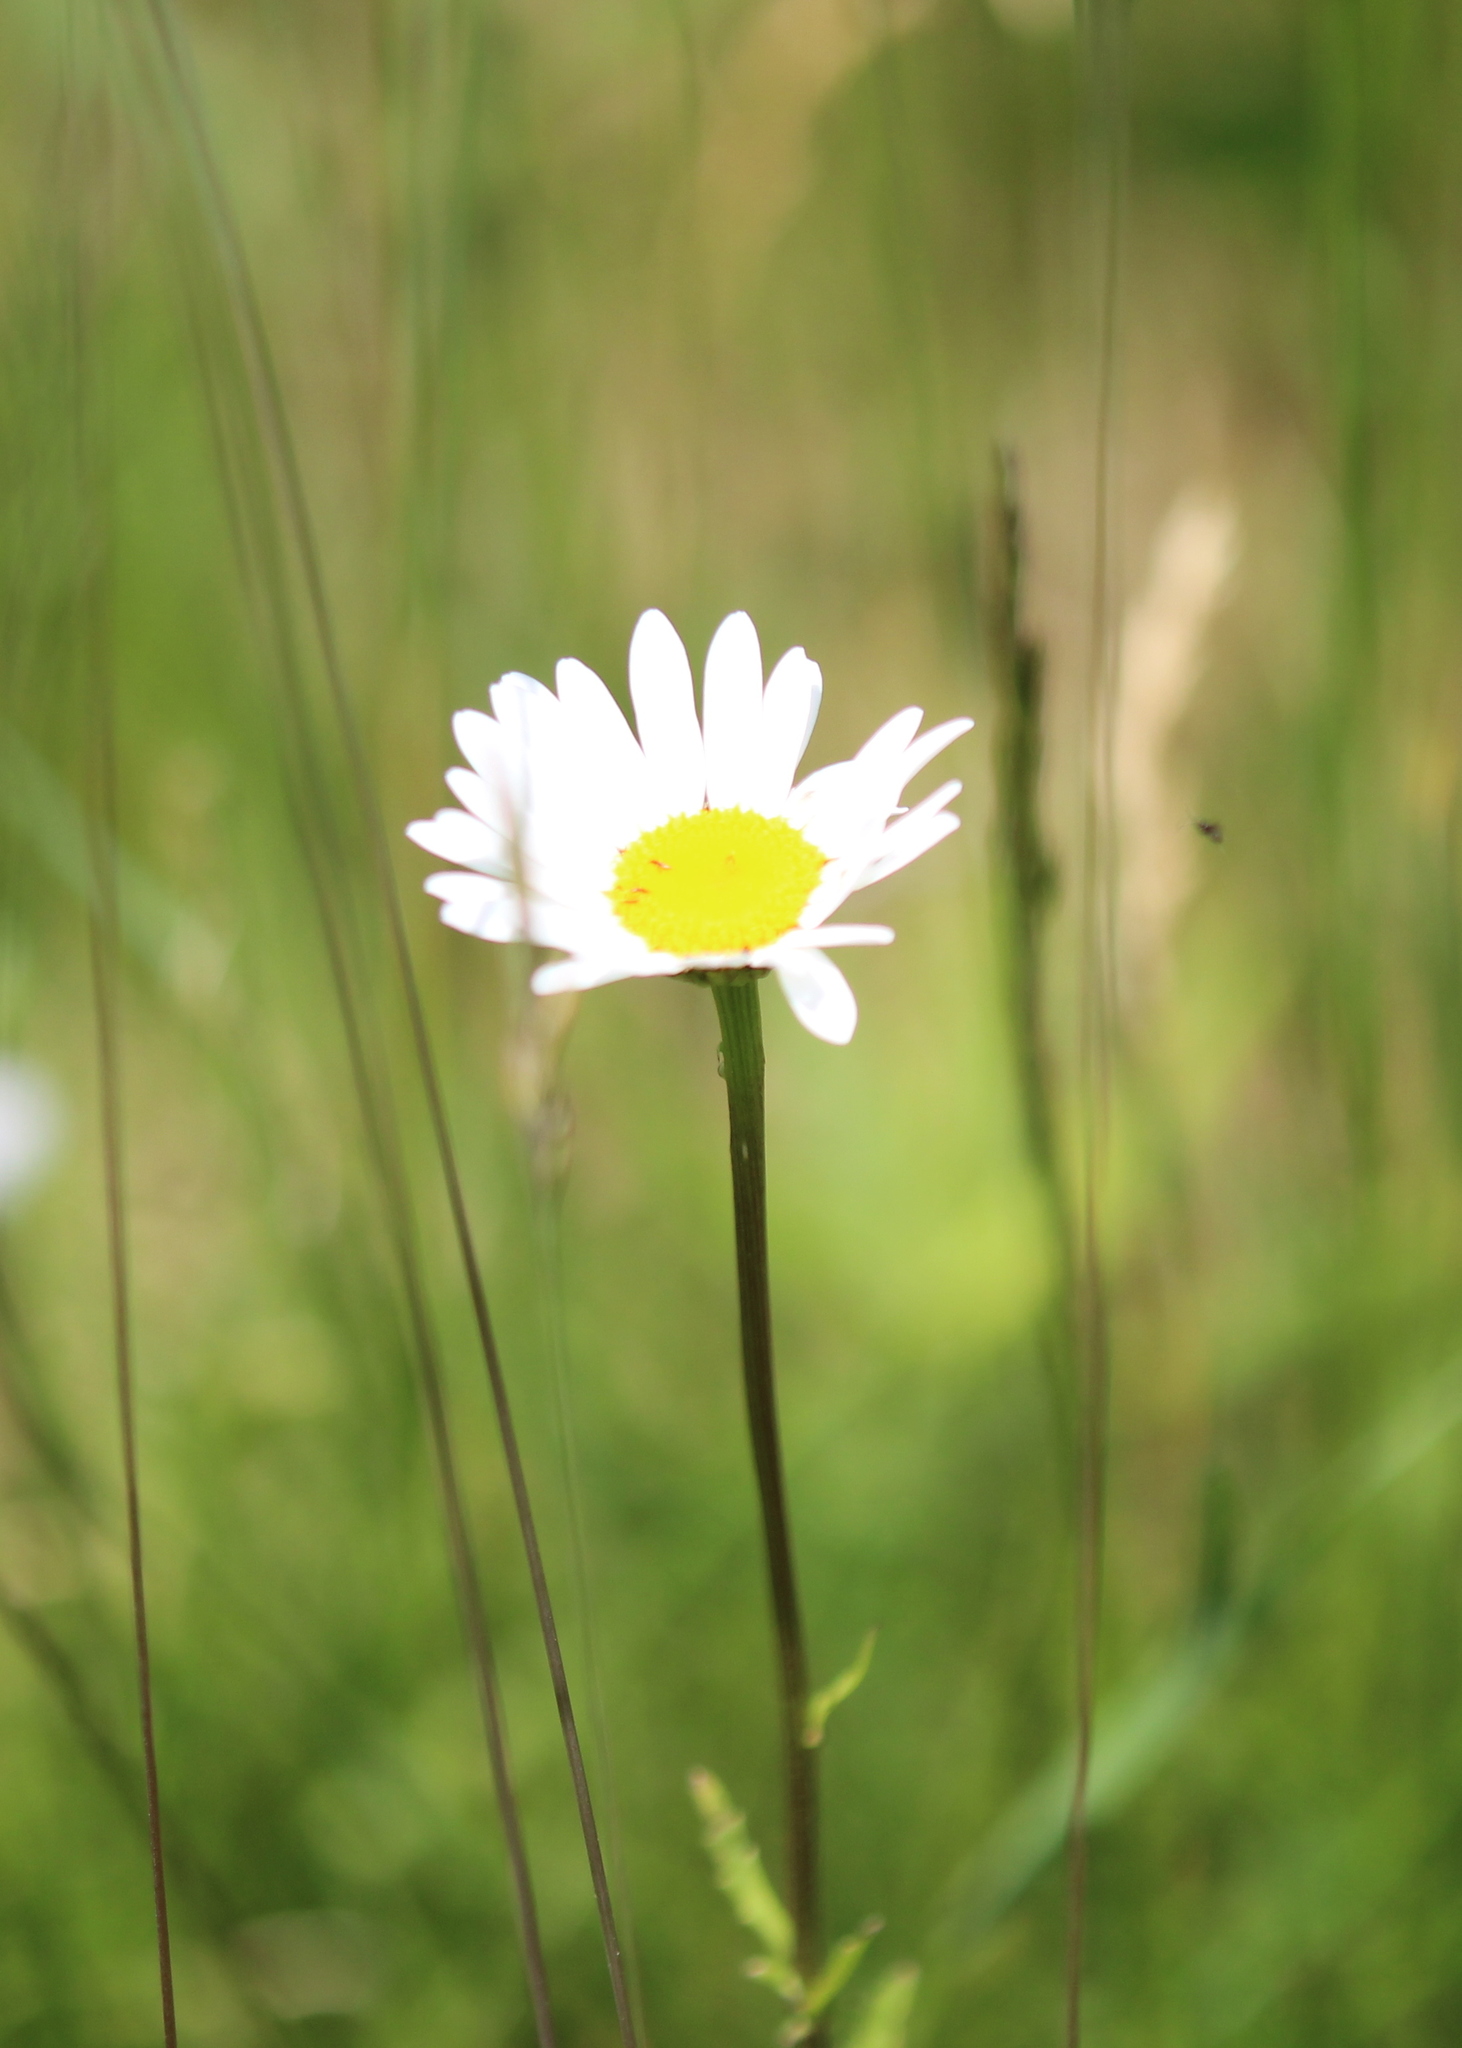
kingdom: Plantae
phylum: Tracheophyta
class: Magnoliopsida
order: Asterales
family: Asteraceae
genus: Leucanthemum
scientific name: Leucanthemum vulgare
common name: Oxeye daisy
